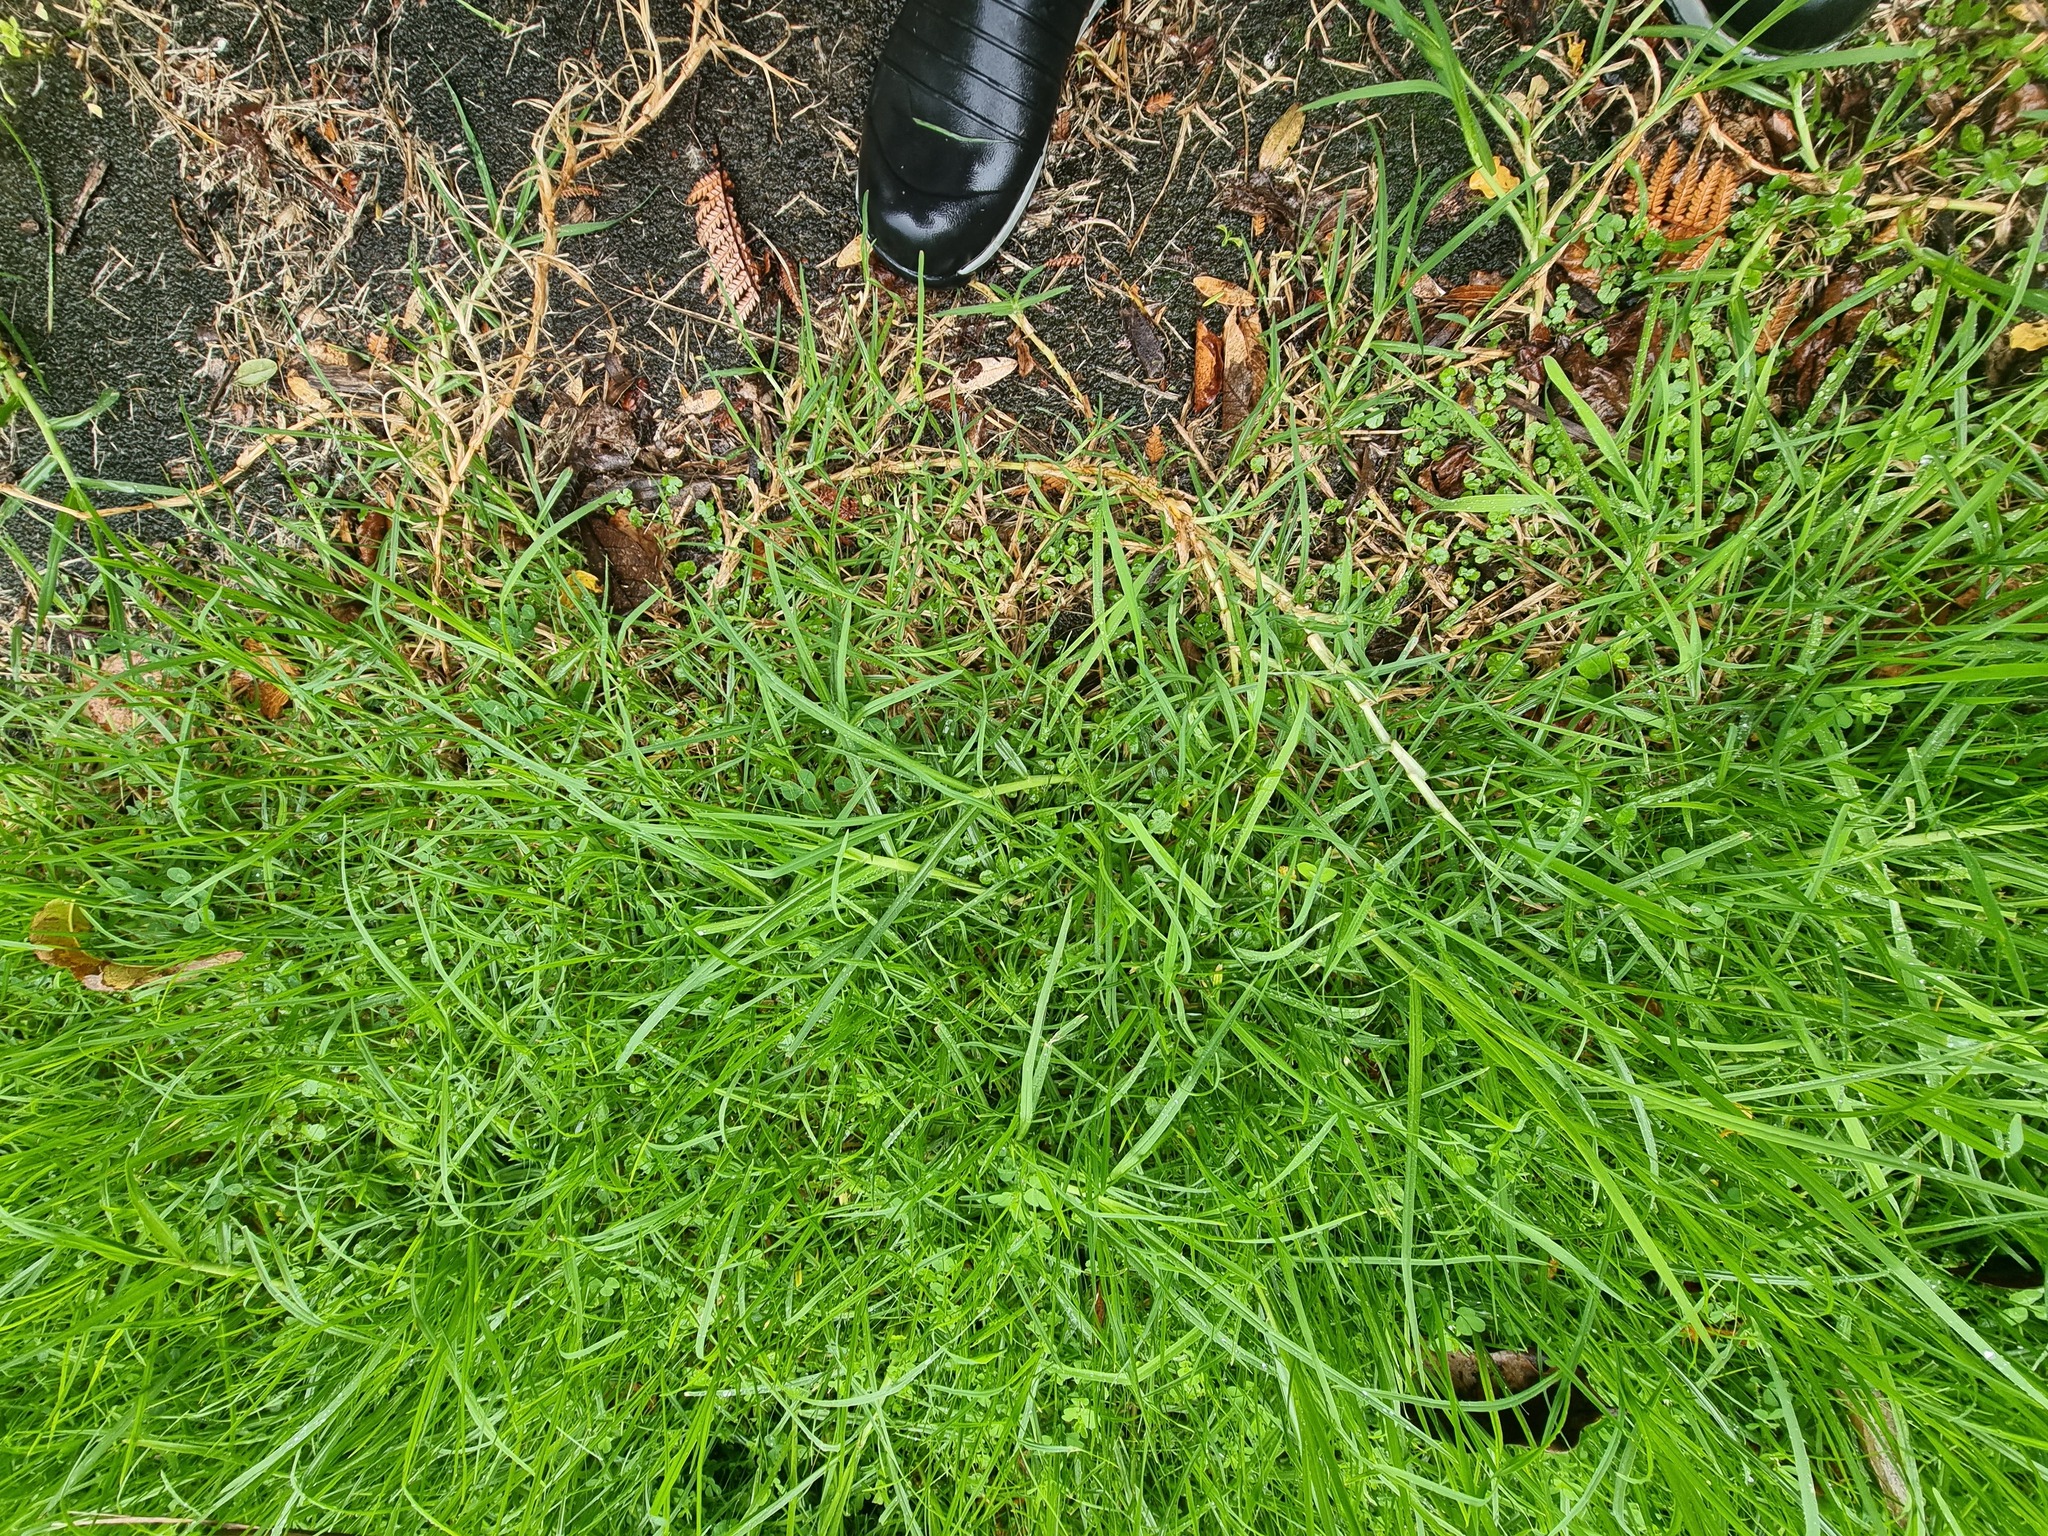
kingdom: Plantae
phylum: Tracheophyta
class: Liliopsida
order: Poales
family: Poaceae
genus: Cenchrus
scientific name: Cenchrus clandestinus
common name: Kikuyugrass
